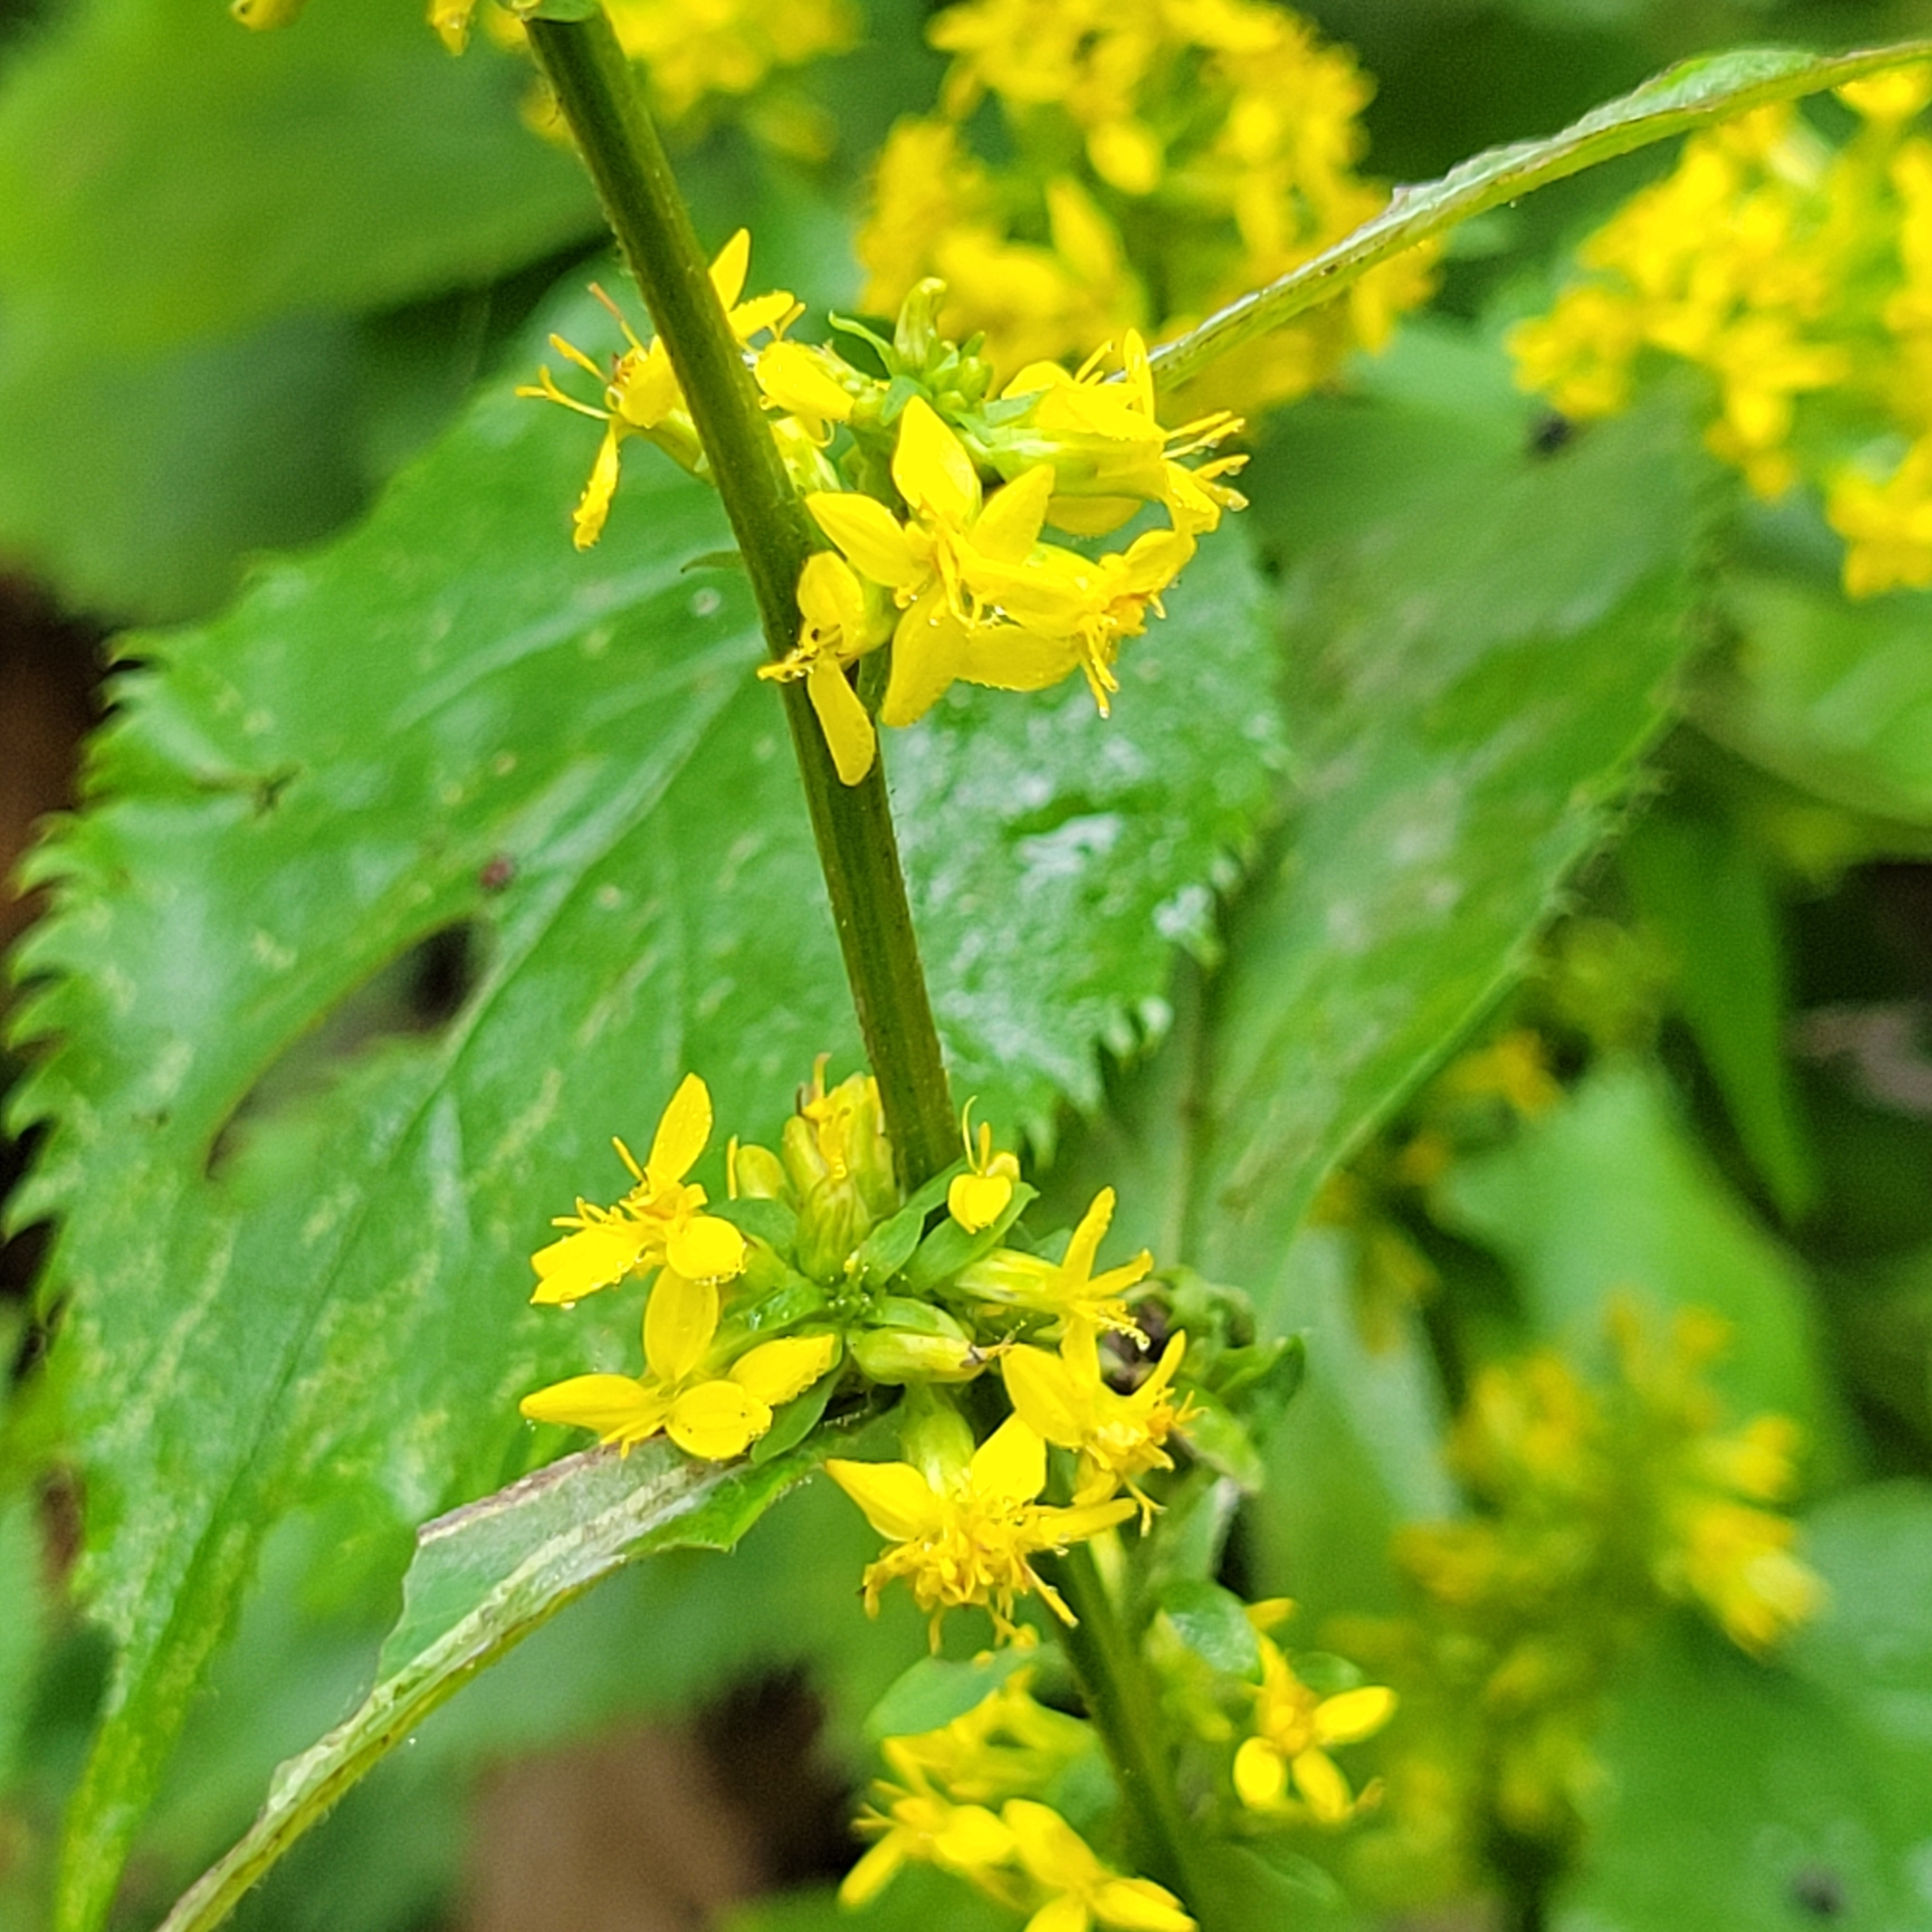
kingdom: Plantae
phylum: Tracheophyta
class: Magnoliopsida
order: Asterales
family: Asteraceae
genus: Solidago
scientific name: Solidago flexicaulis
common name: Zig-zag goldenrod
